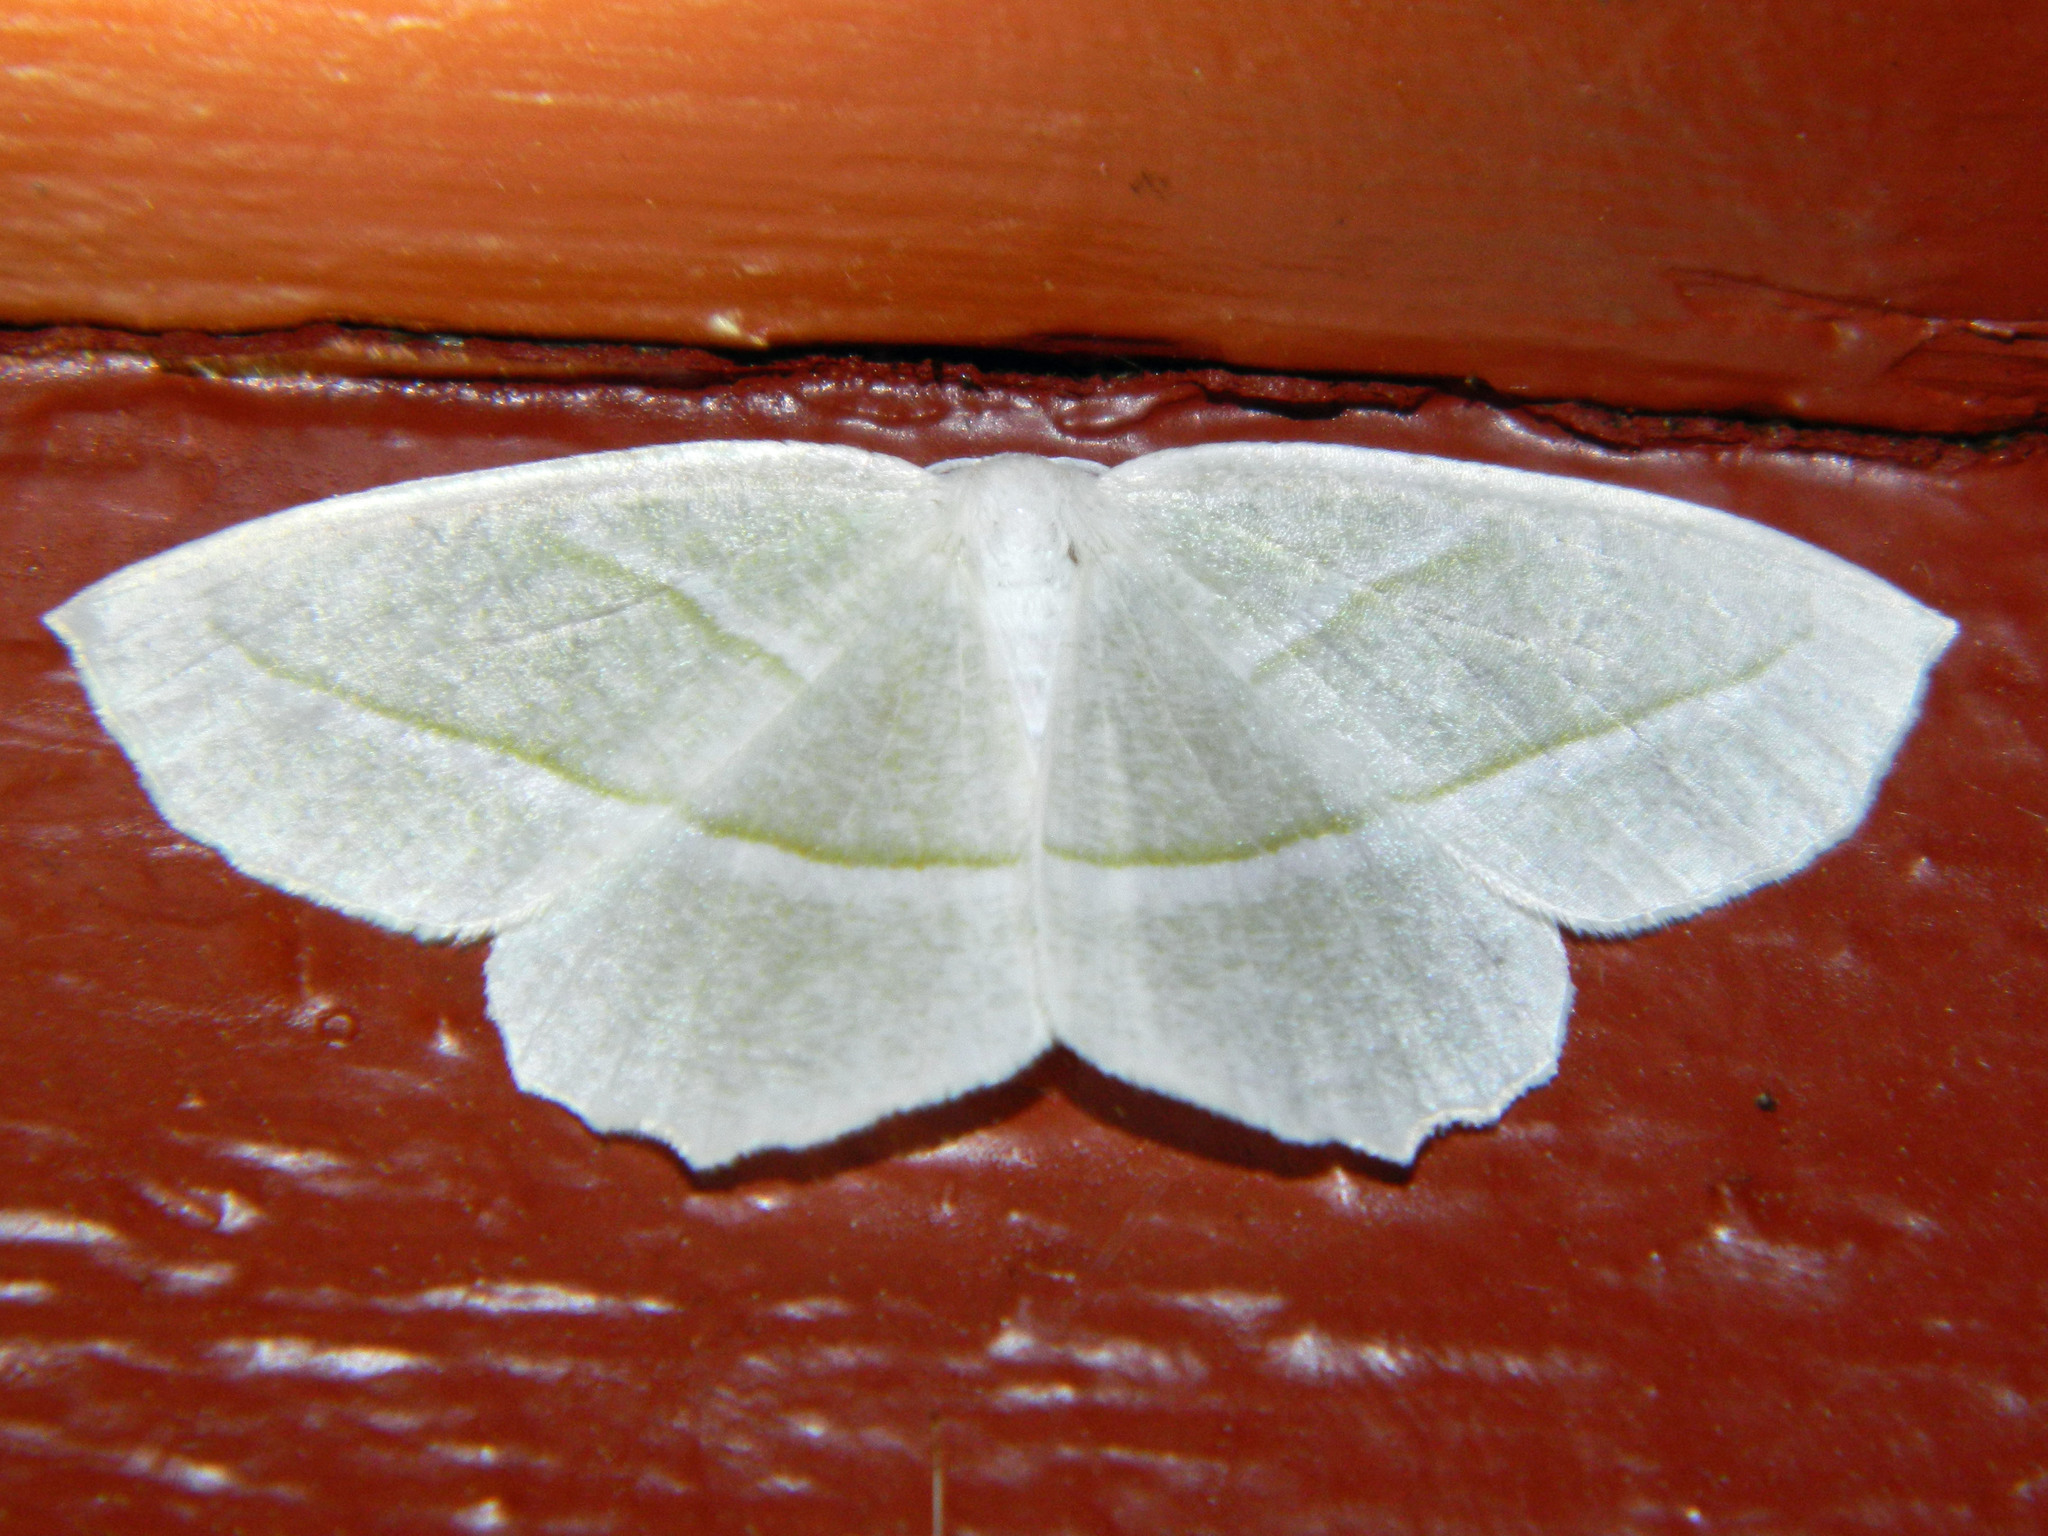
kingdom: Animalia
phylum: Arthropoda
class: Insecta
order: Lepidoptera
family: Geometridae
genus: Campaea
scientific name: Campaea perlata
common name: Fringed looper
